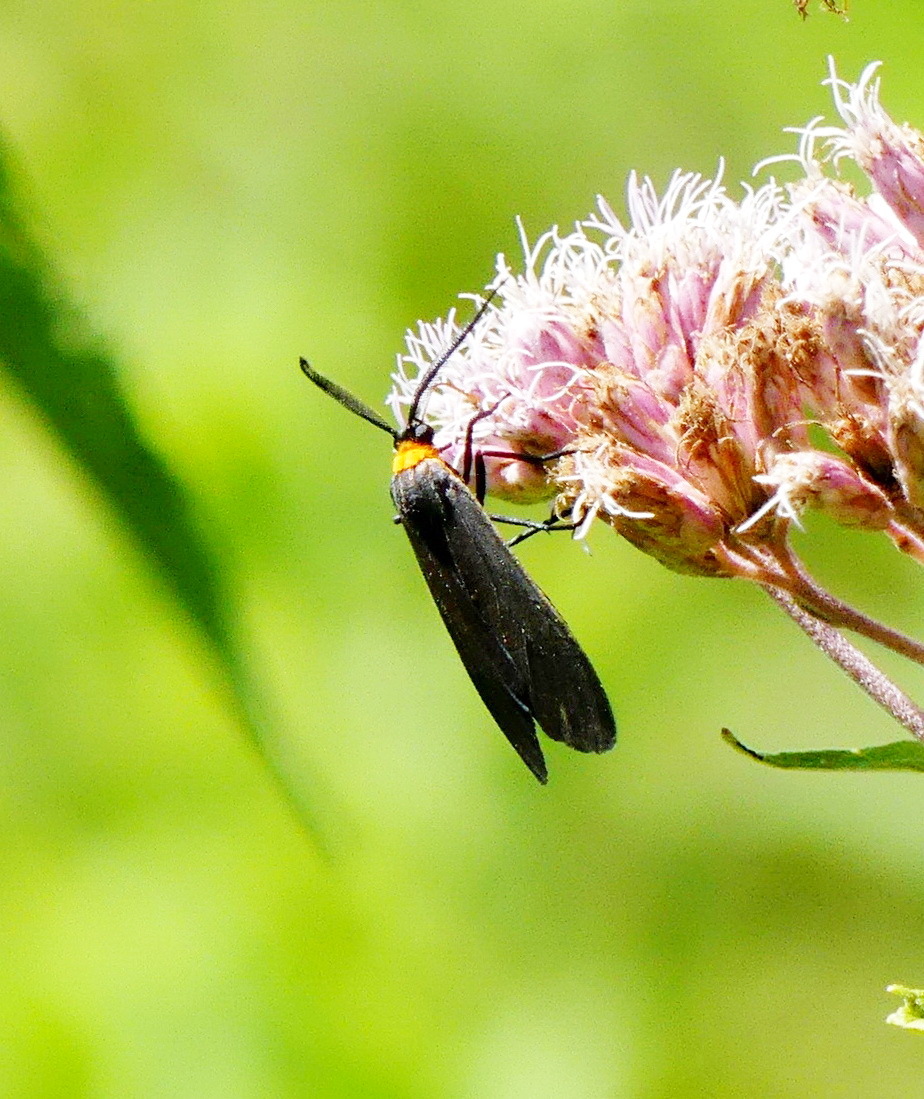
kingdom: Animalia
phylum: Arthropoda
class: Insecta
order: Lepidoptera
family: Erebidae
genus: Cisseps
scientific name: Cisseps fulvicollis
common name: Yellow-collared scape moth
